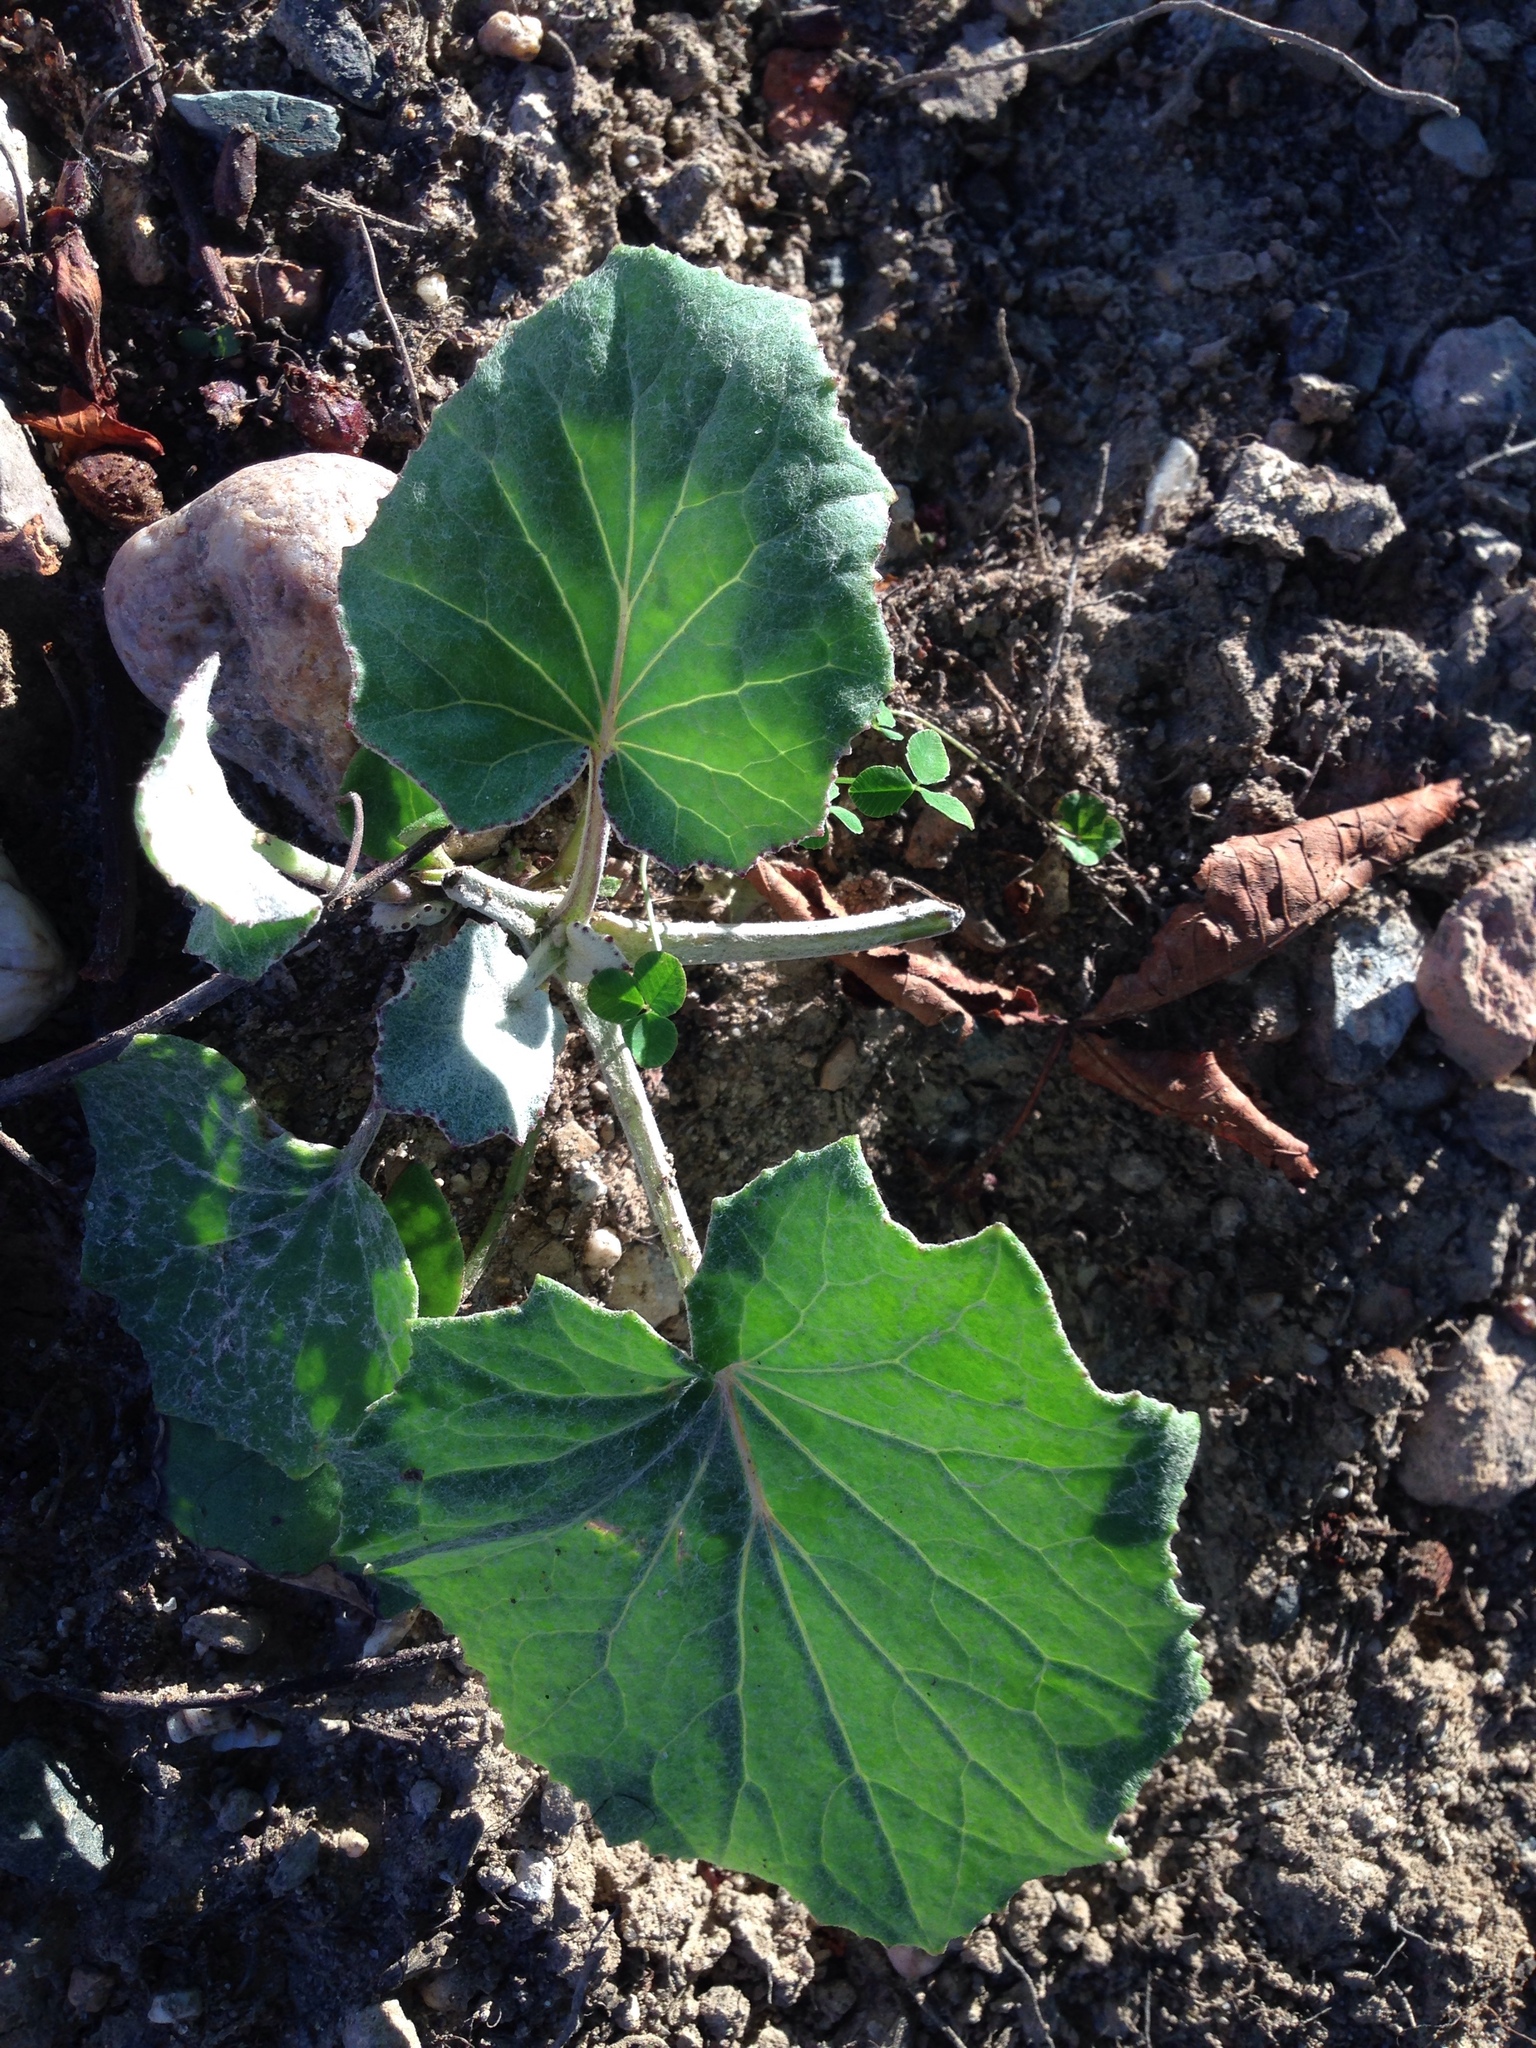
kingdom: Plantae
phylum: Tracheophyta
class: Magnoliopsida
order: Asterales
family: Asteraceae
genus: Tussilago
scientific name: Tussilago farfara
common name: Coltsfoot
